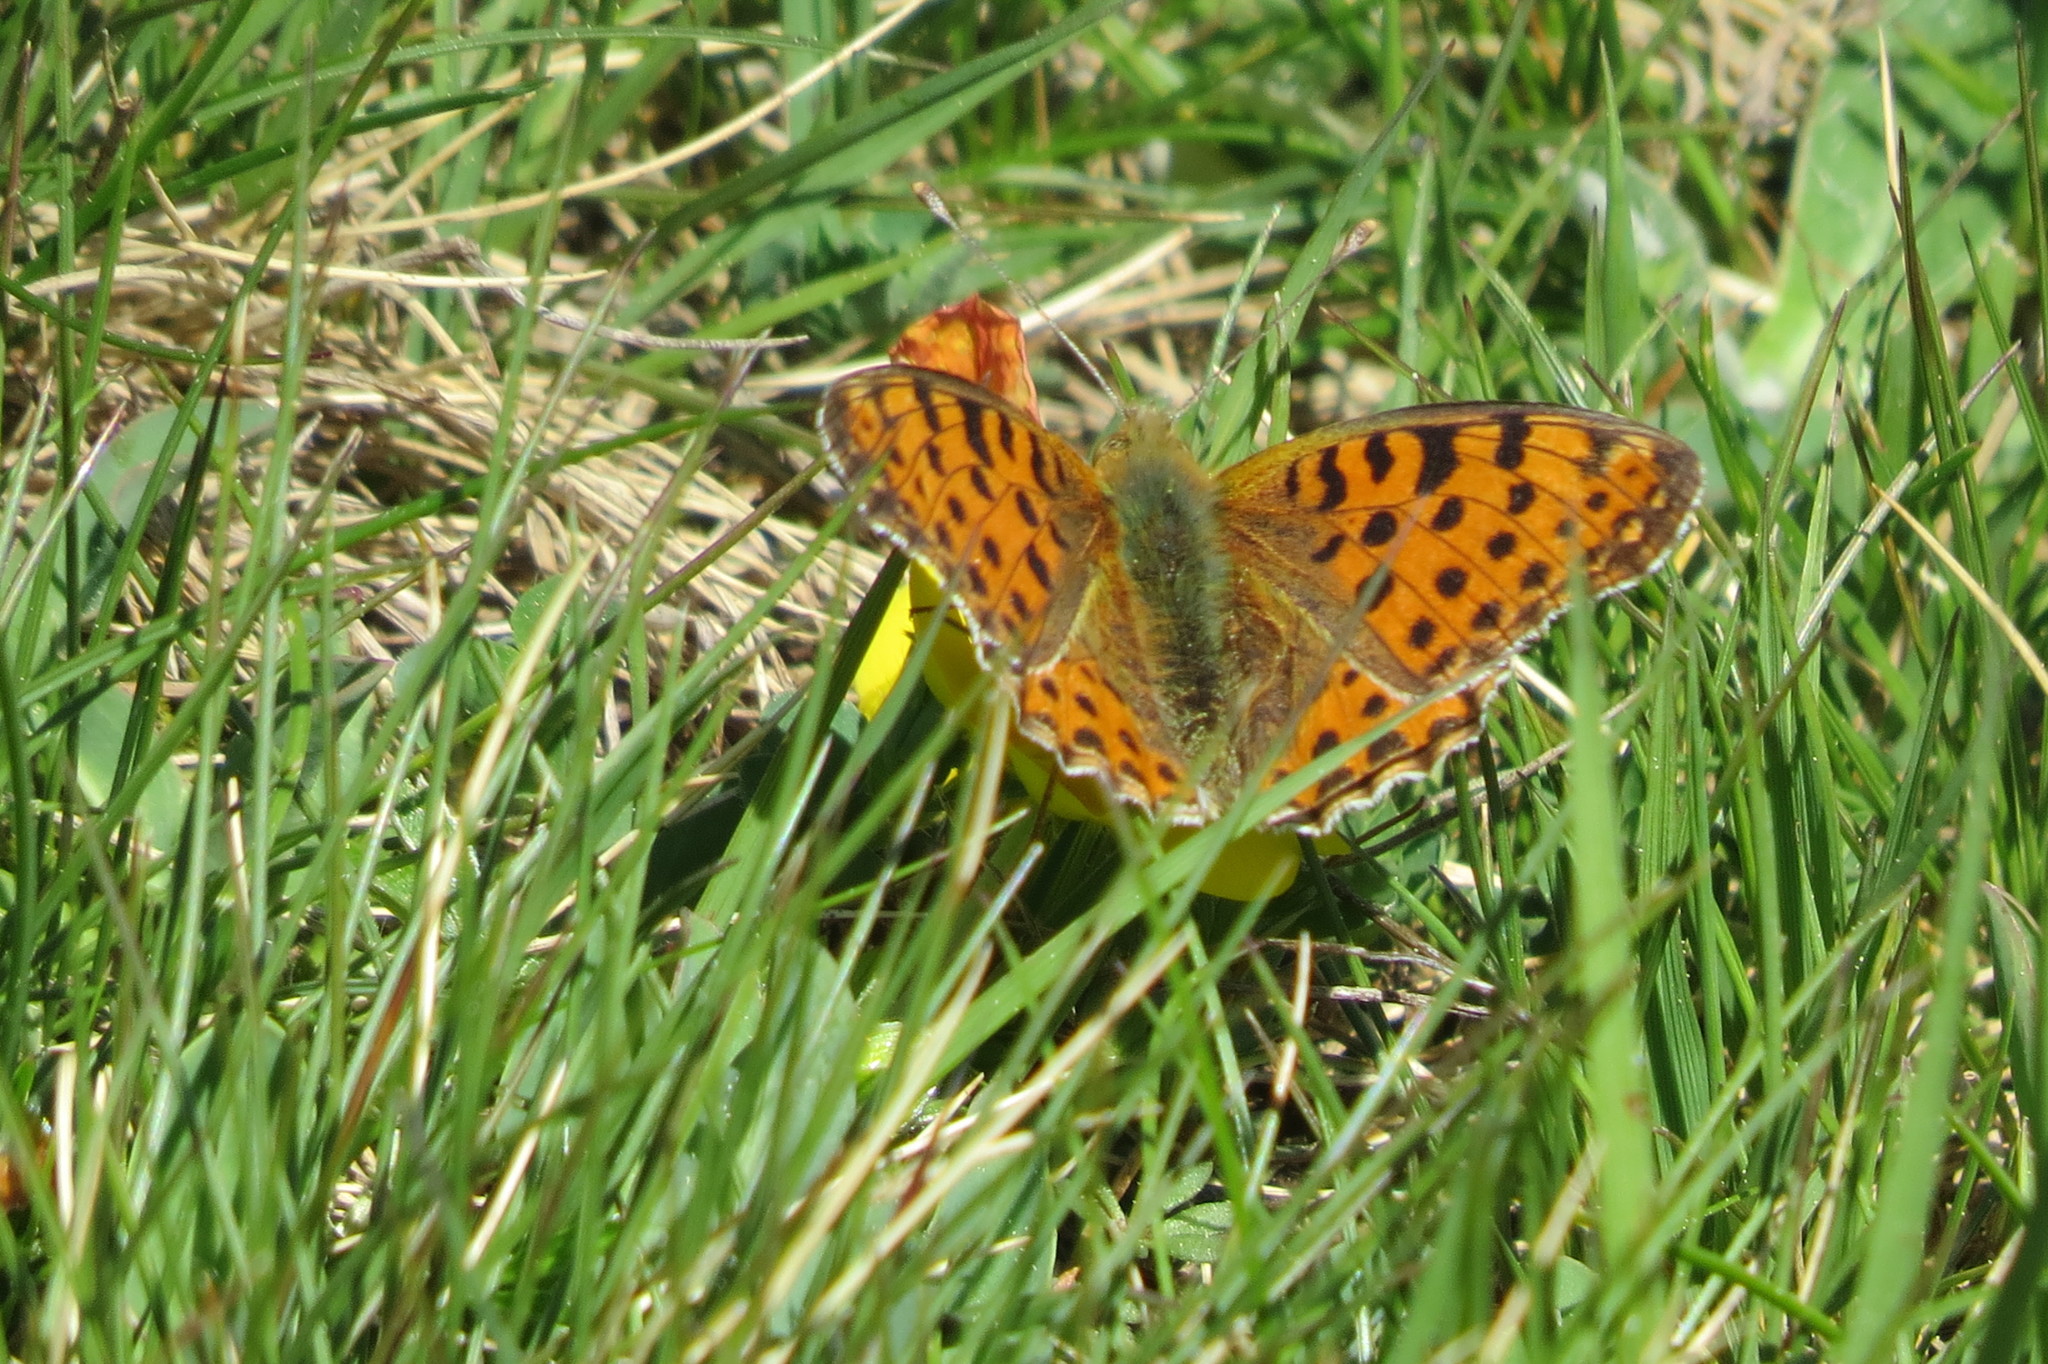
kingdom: Animalia
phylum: Arthropoda
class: Insecta
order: Lepidoptera
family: Nymphalidae
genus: Issoria
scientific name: Issoria lathonia
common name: Queen of spain fritillary
